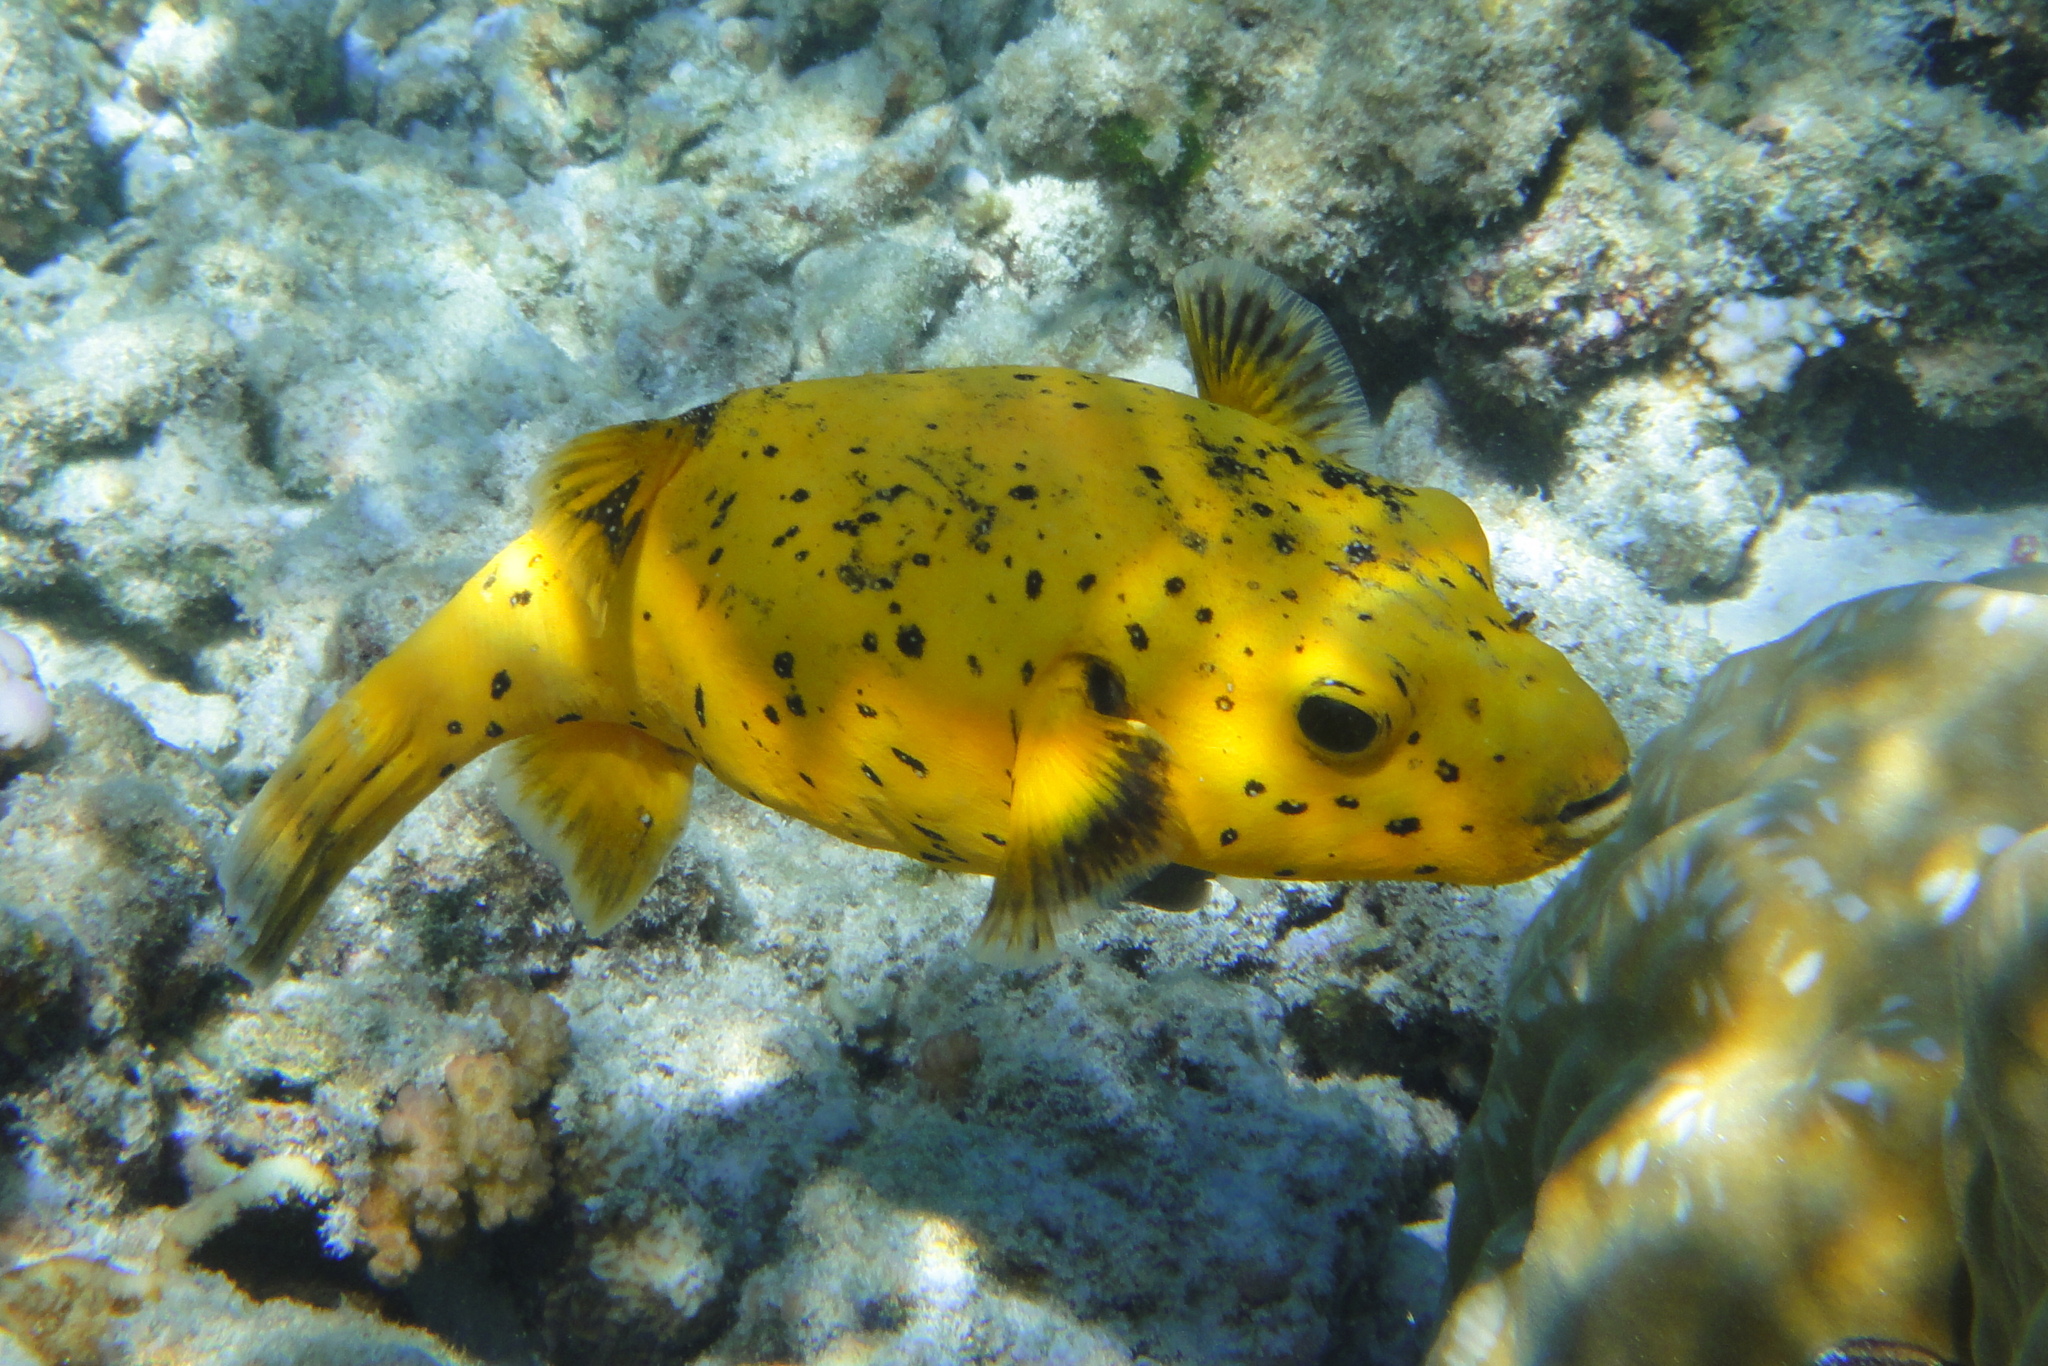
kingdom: Animalia
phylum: Chordata
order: Tetraodontiformes
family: Tetraodontidae
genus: Arothron
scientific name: Arothron meleagris
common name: Guinea-fowl pufferfish
